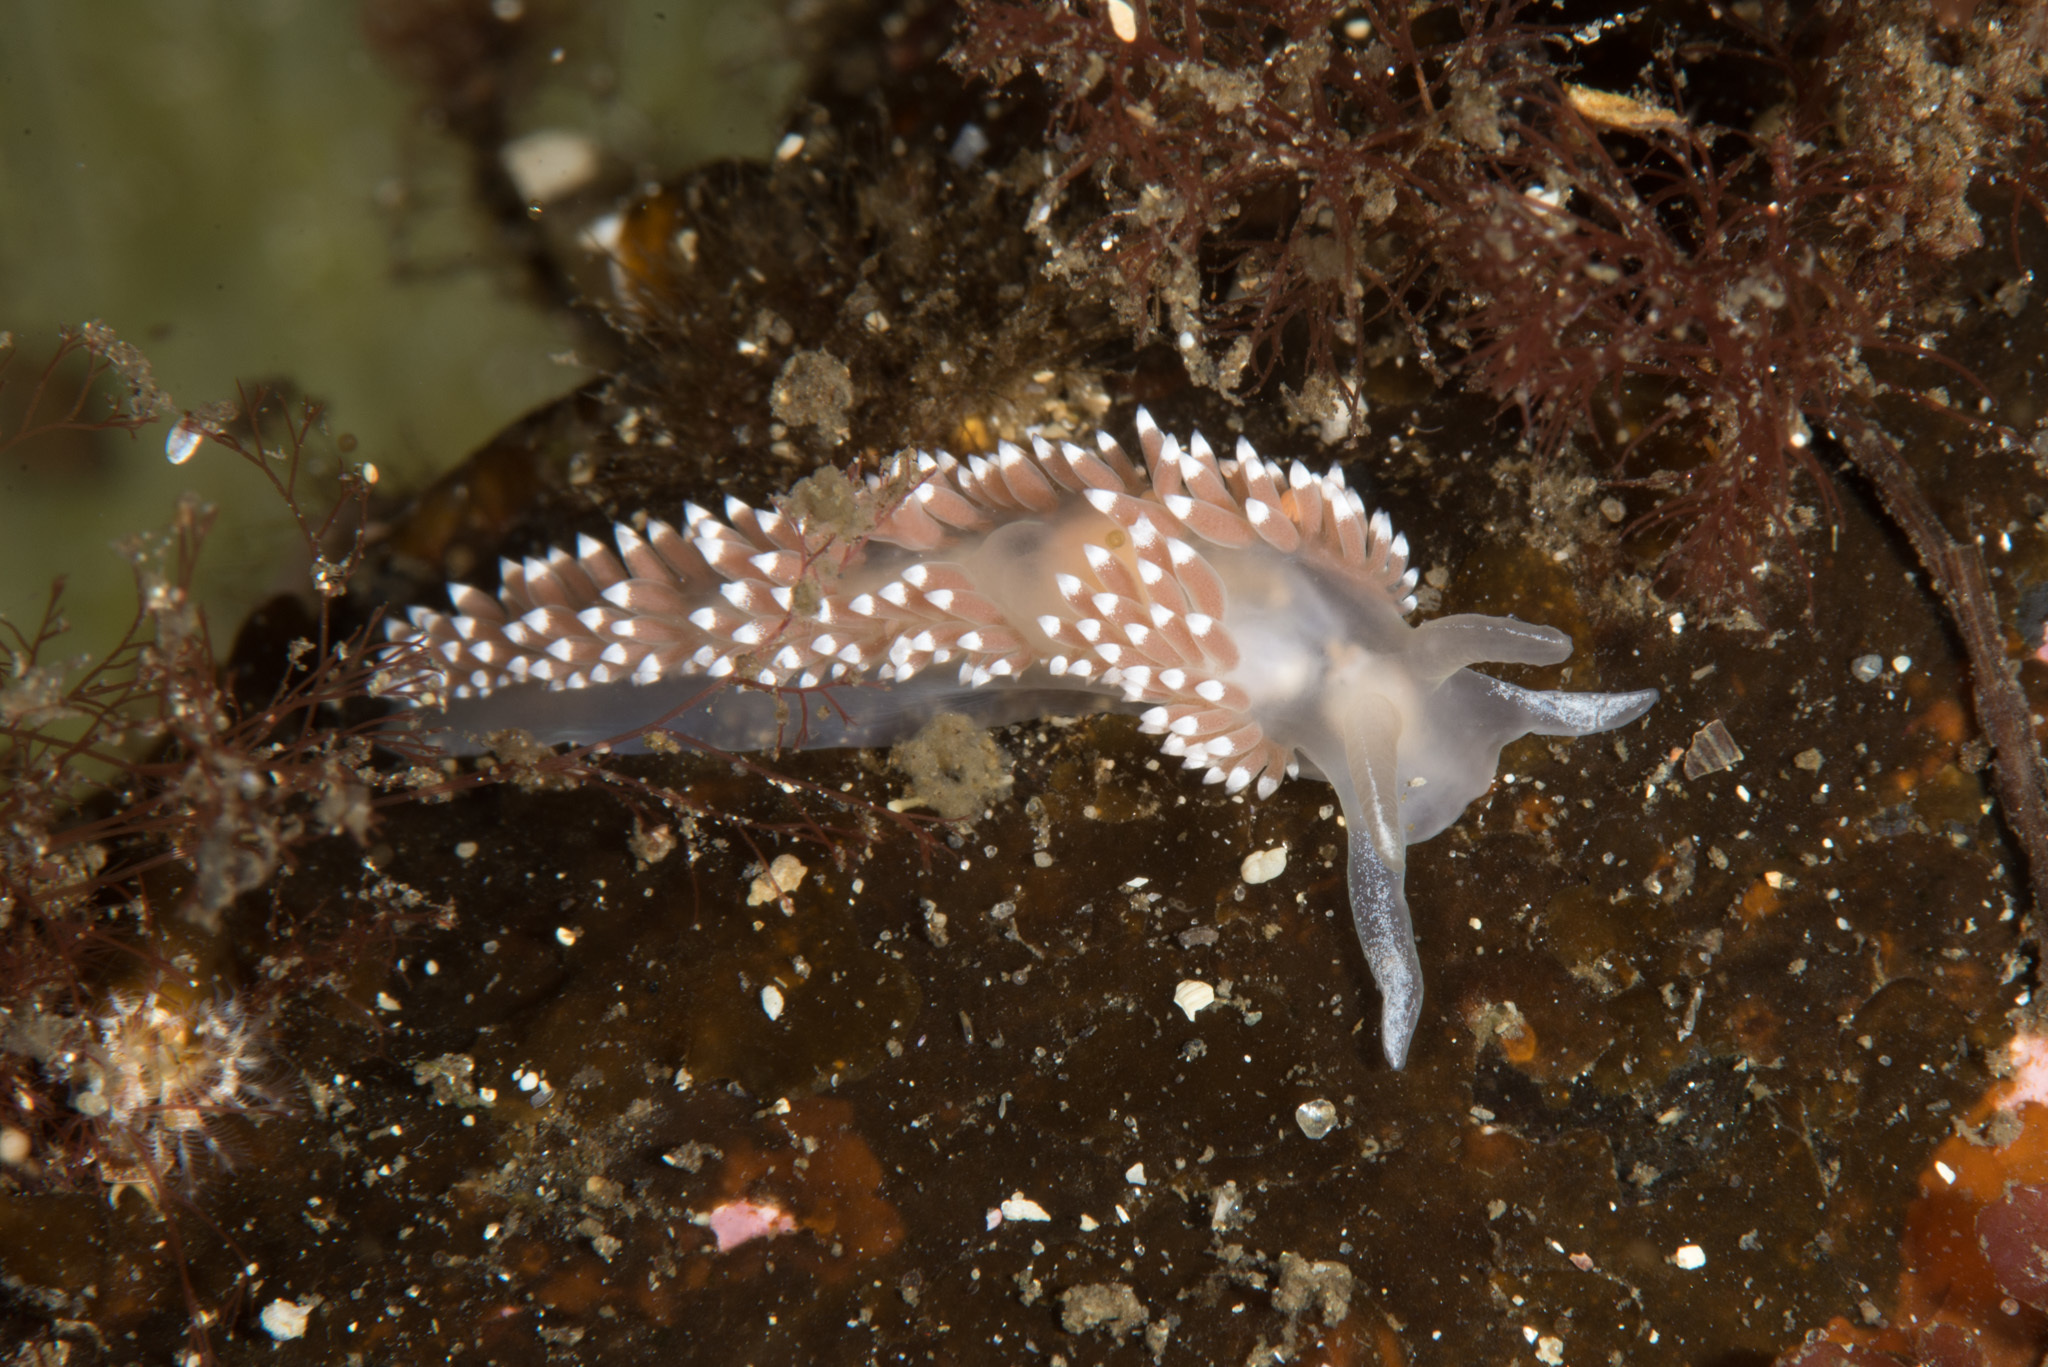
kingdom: Animalia
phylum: Mollusca
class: Gastropoda
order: Nudibranchia
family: Coryphellidae
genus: Coryphella
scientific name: Coryphella verrucosa
